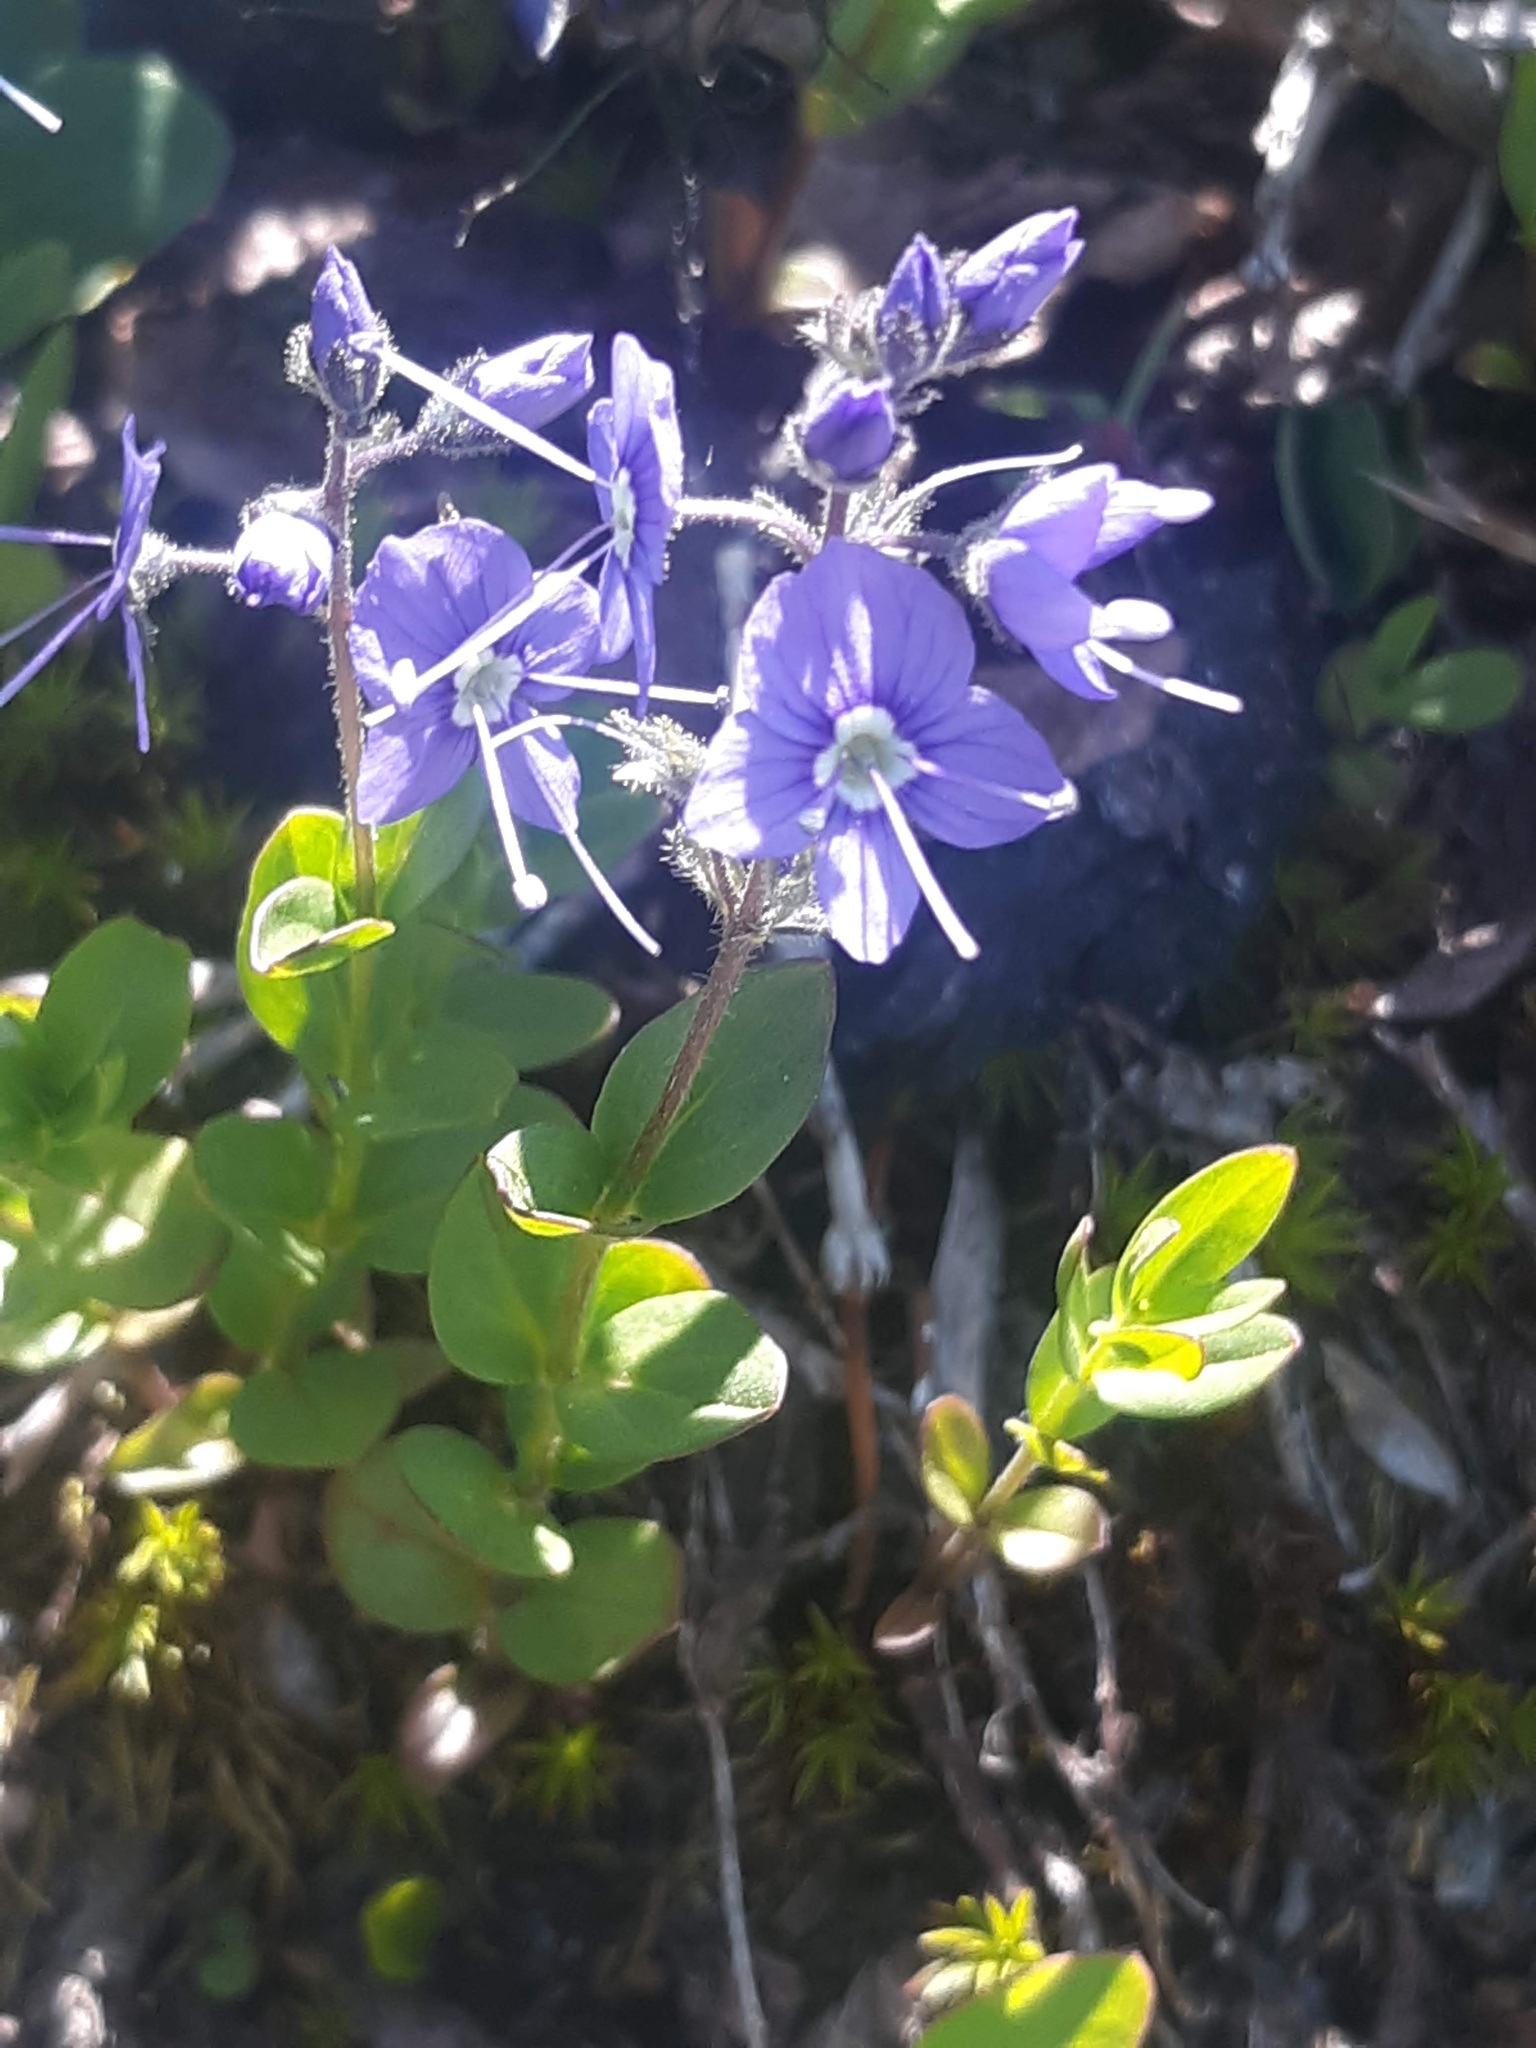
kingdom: Plantae
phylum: Tracheophyta
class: Magnoliopsida
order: Lamiales
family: Plantaginaceae
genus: Veronica
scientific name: Veronica cusickii
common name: Cusick's speedwell
